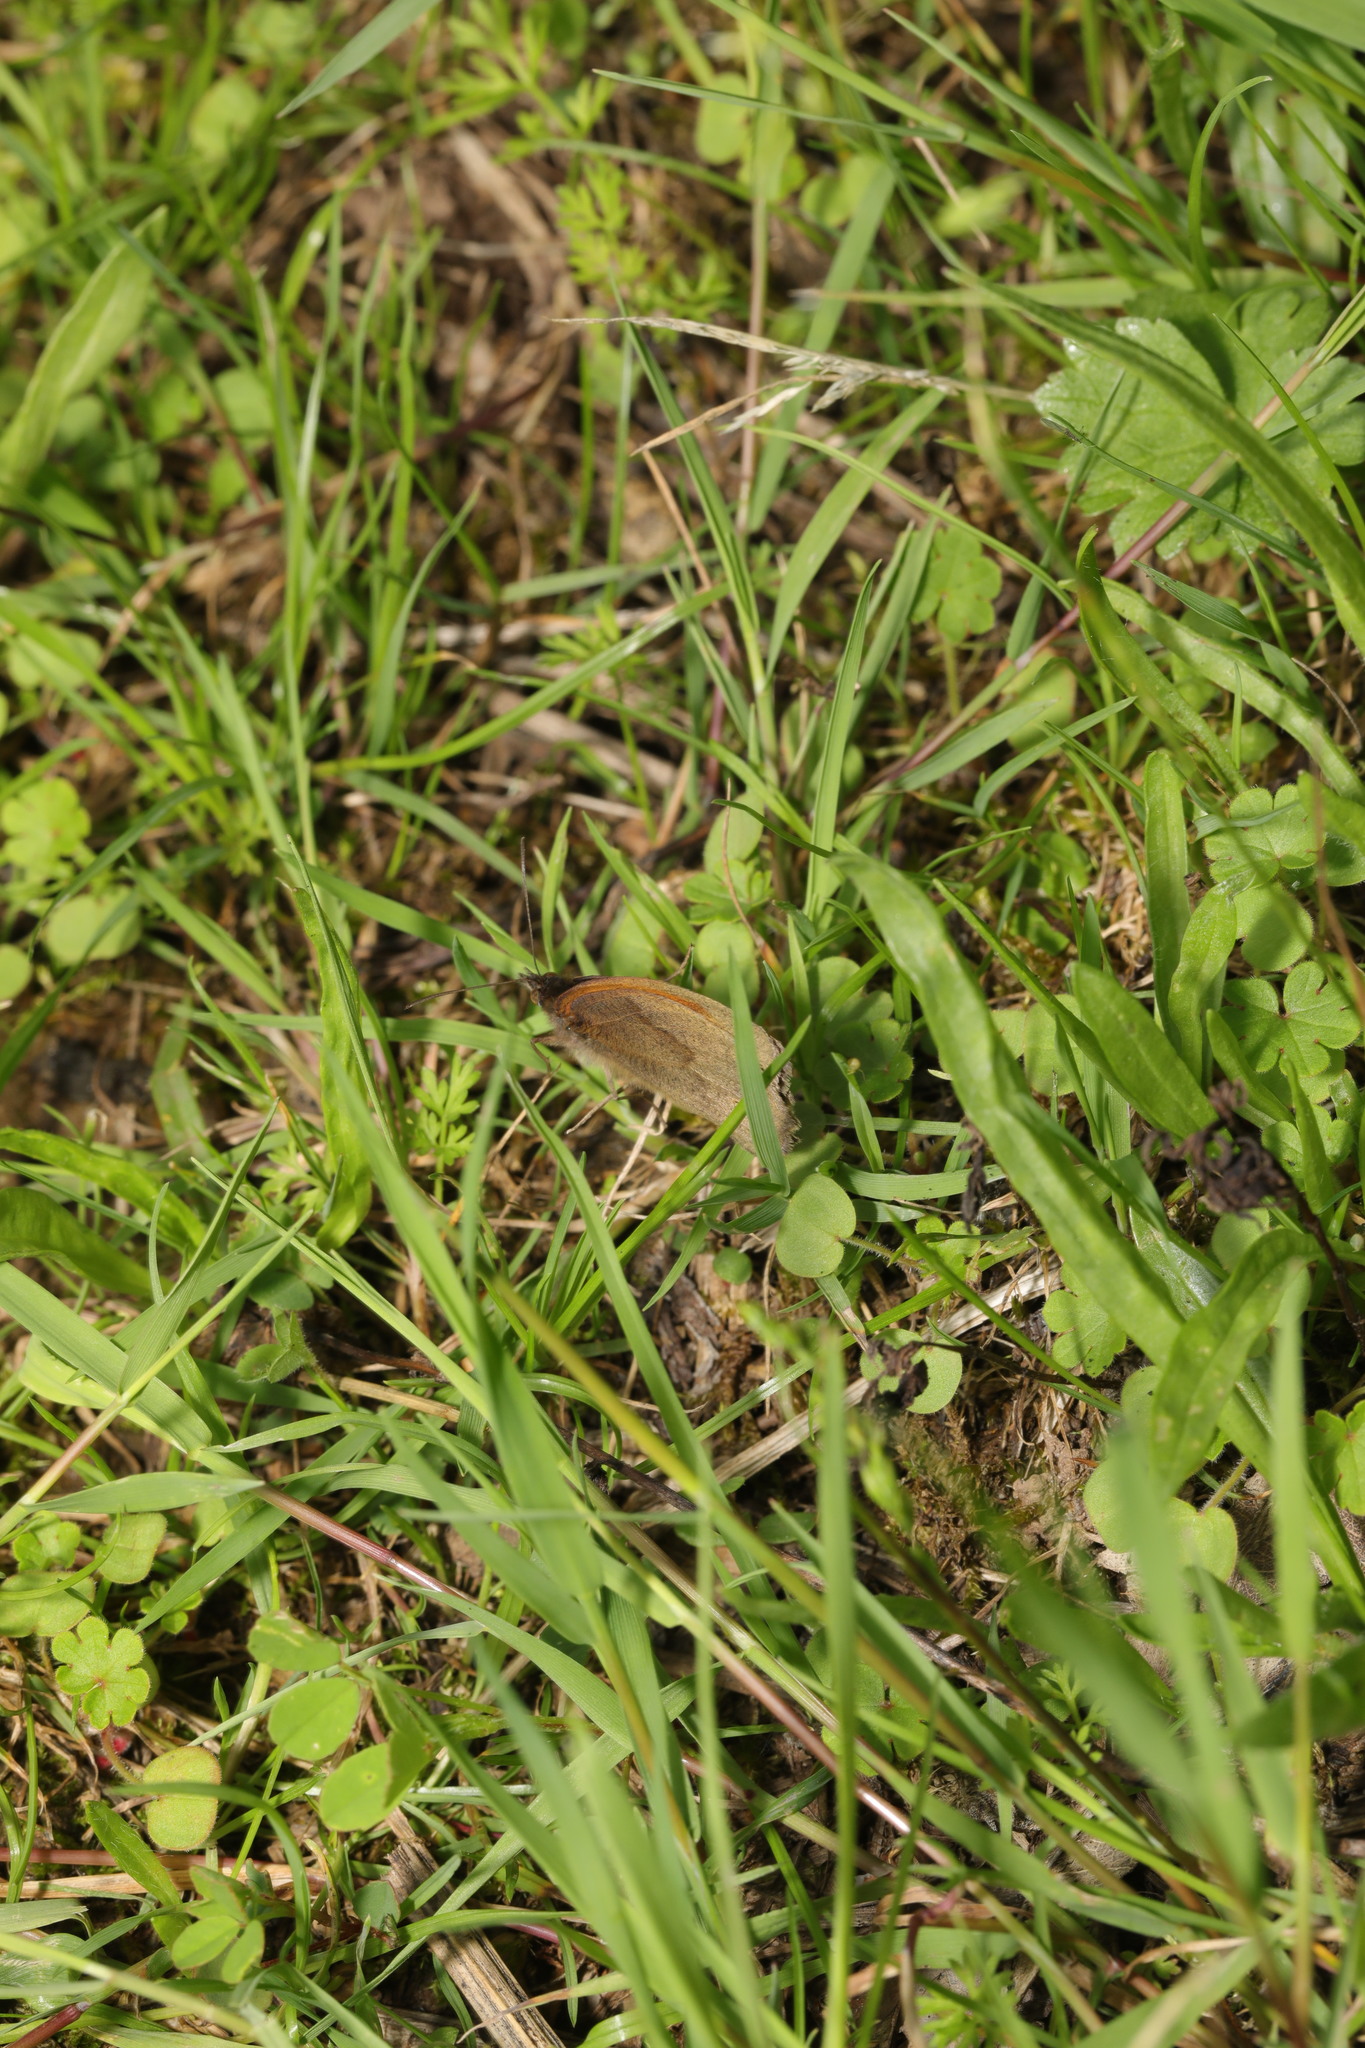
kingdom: Animalia
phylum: Arthropoda
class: Insecta
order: Lepidoptera
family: Nymphalidae
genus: Maniola
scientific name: Maniola jurtina
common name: Meadow brown
